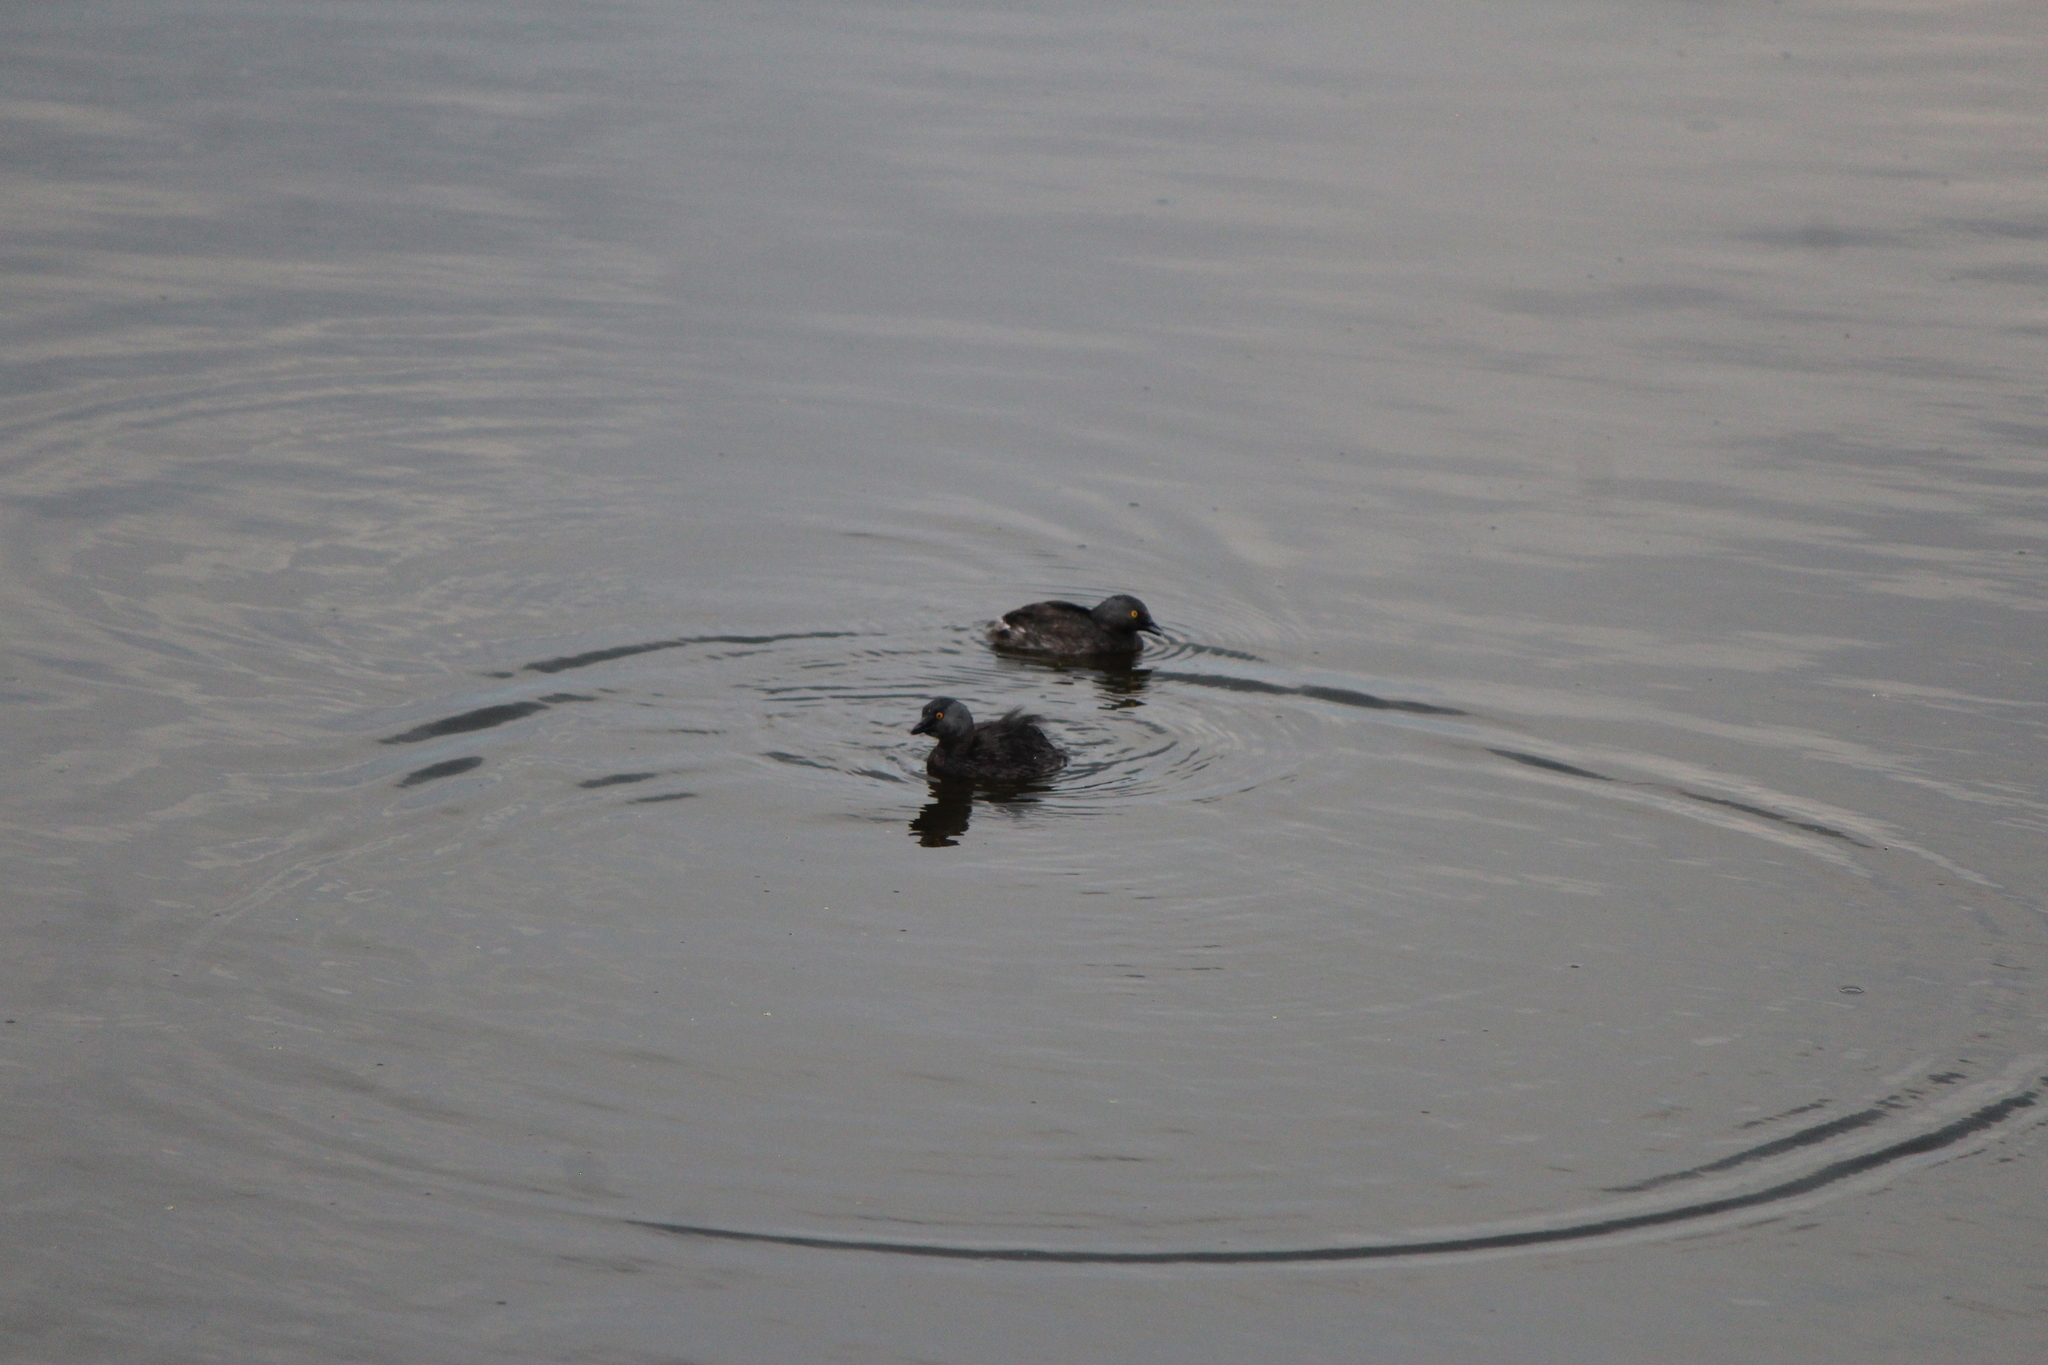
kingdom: Animalia
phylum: Chordata
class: Aves
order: Podicipediformes
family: Podicipedidae
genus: Tachybaptus
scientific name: Tachybaptus dominicus
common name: Least grebe
